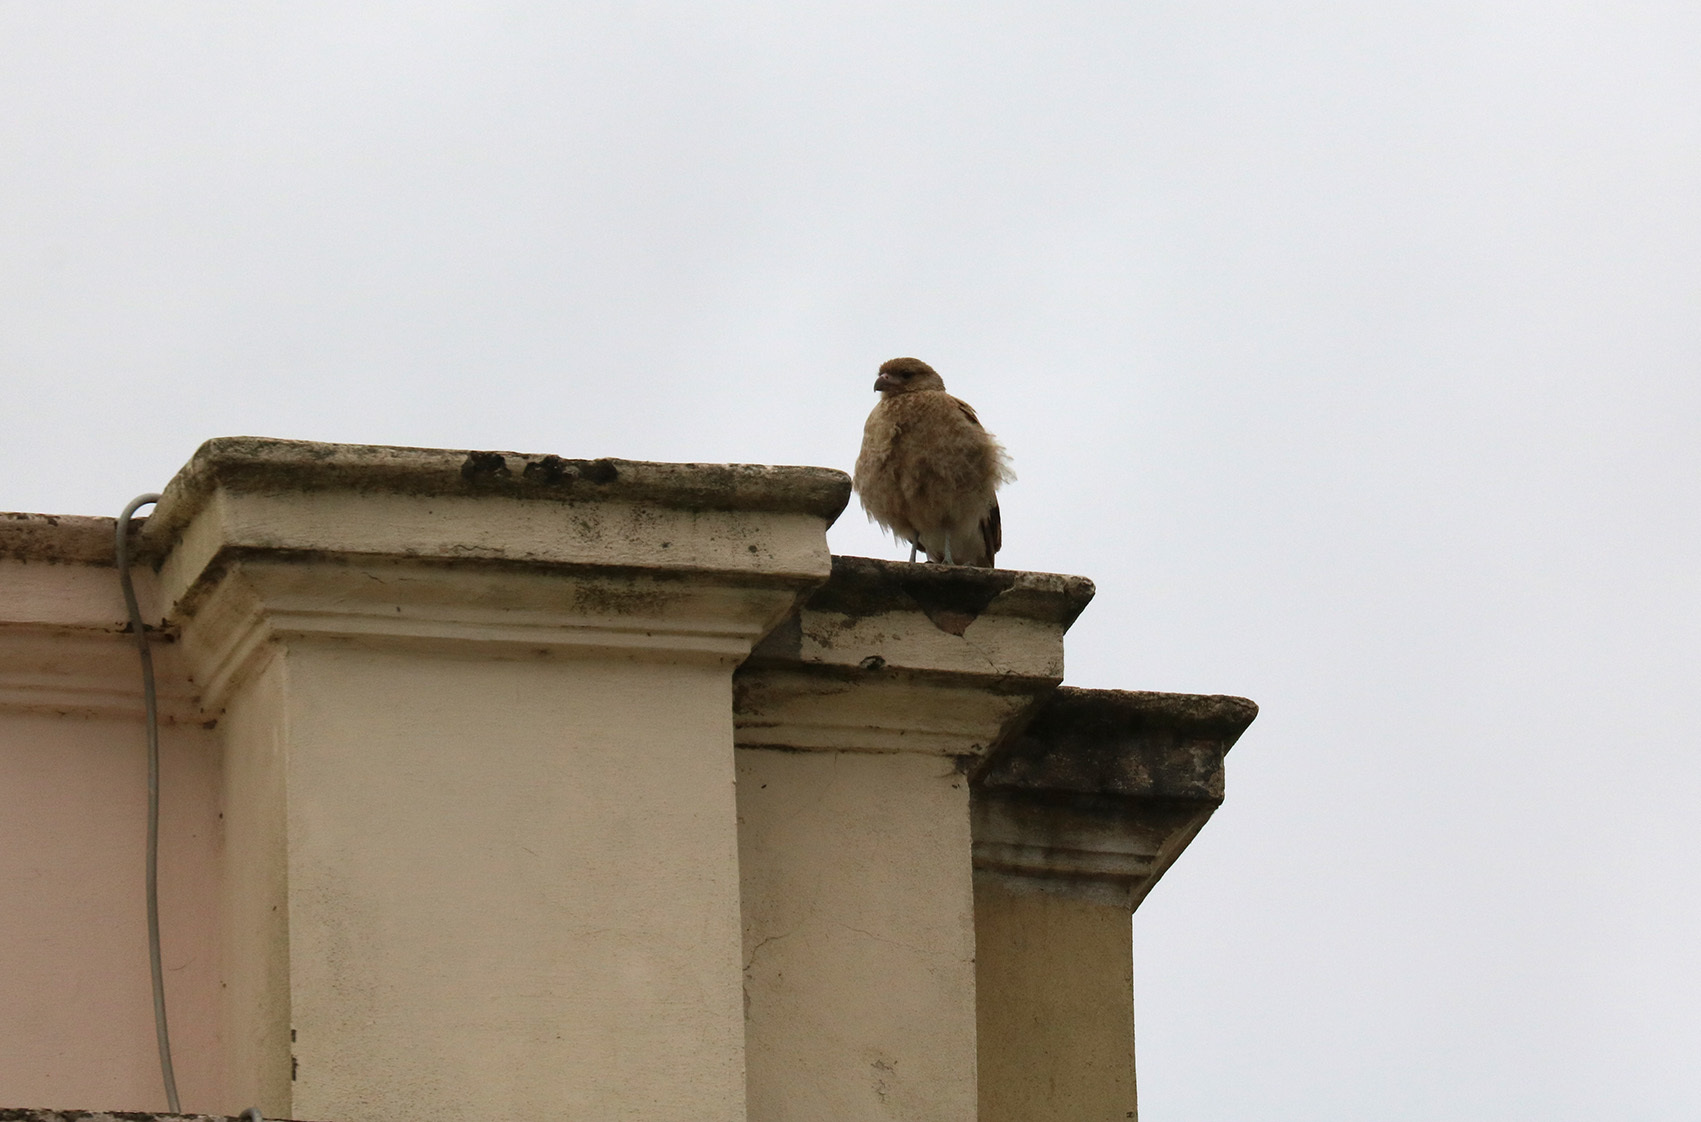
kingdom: Animalia
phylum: Chordata
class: Aves
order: Falconiformes
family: Falconidae
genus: Daptrius
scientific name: Daptrius
